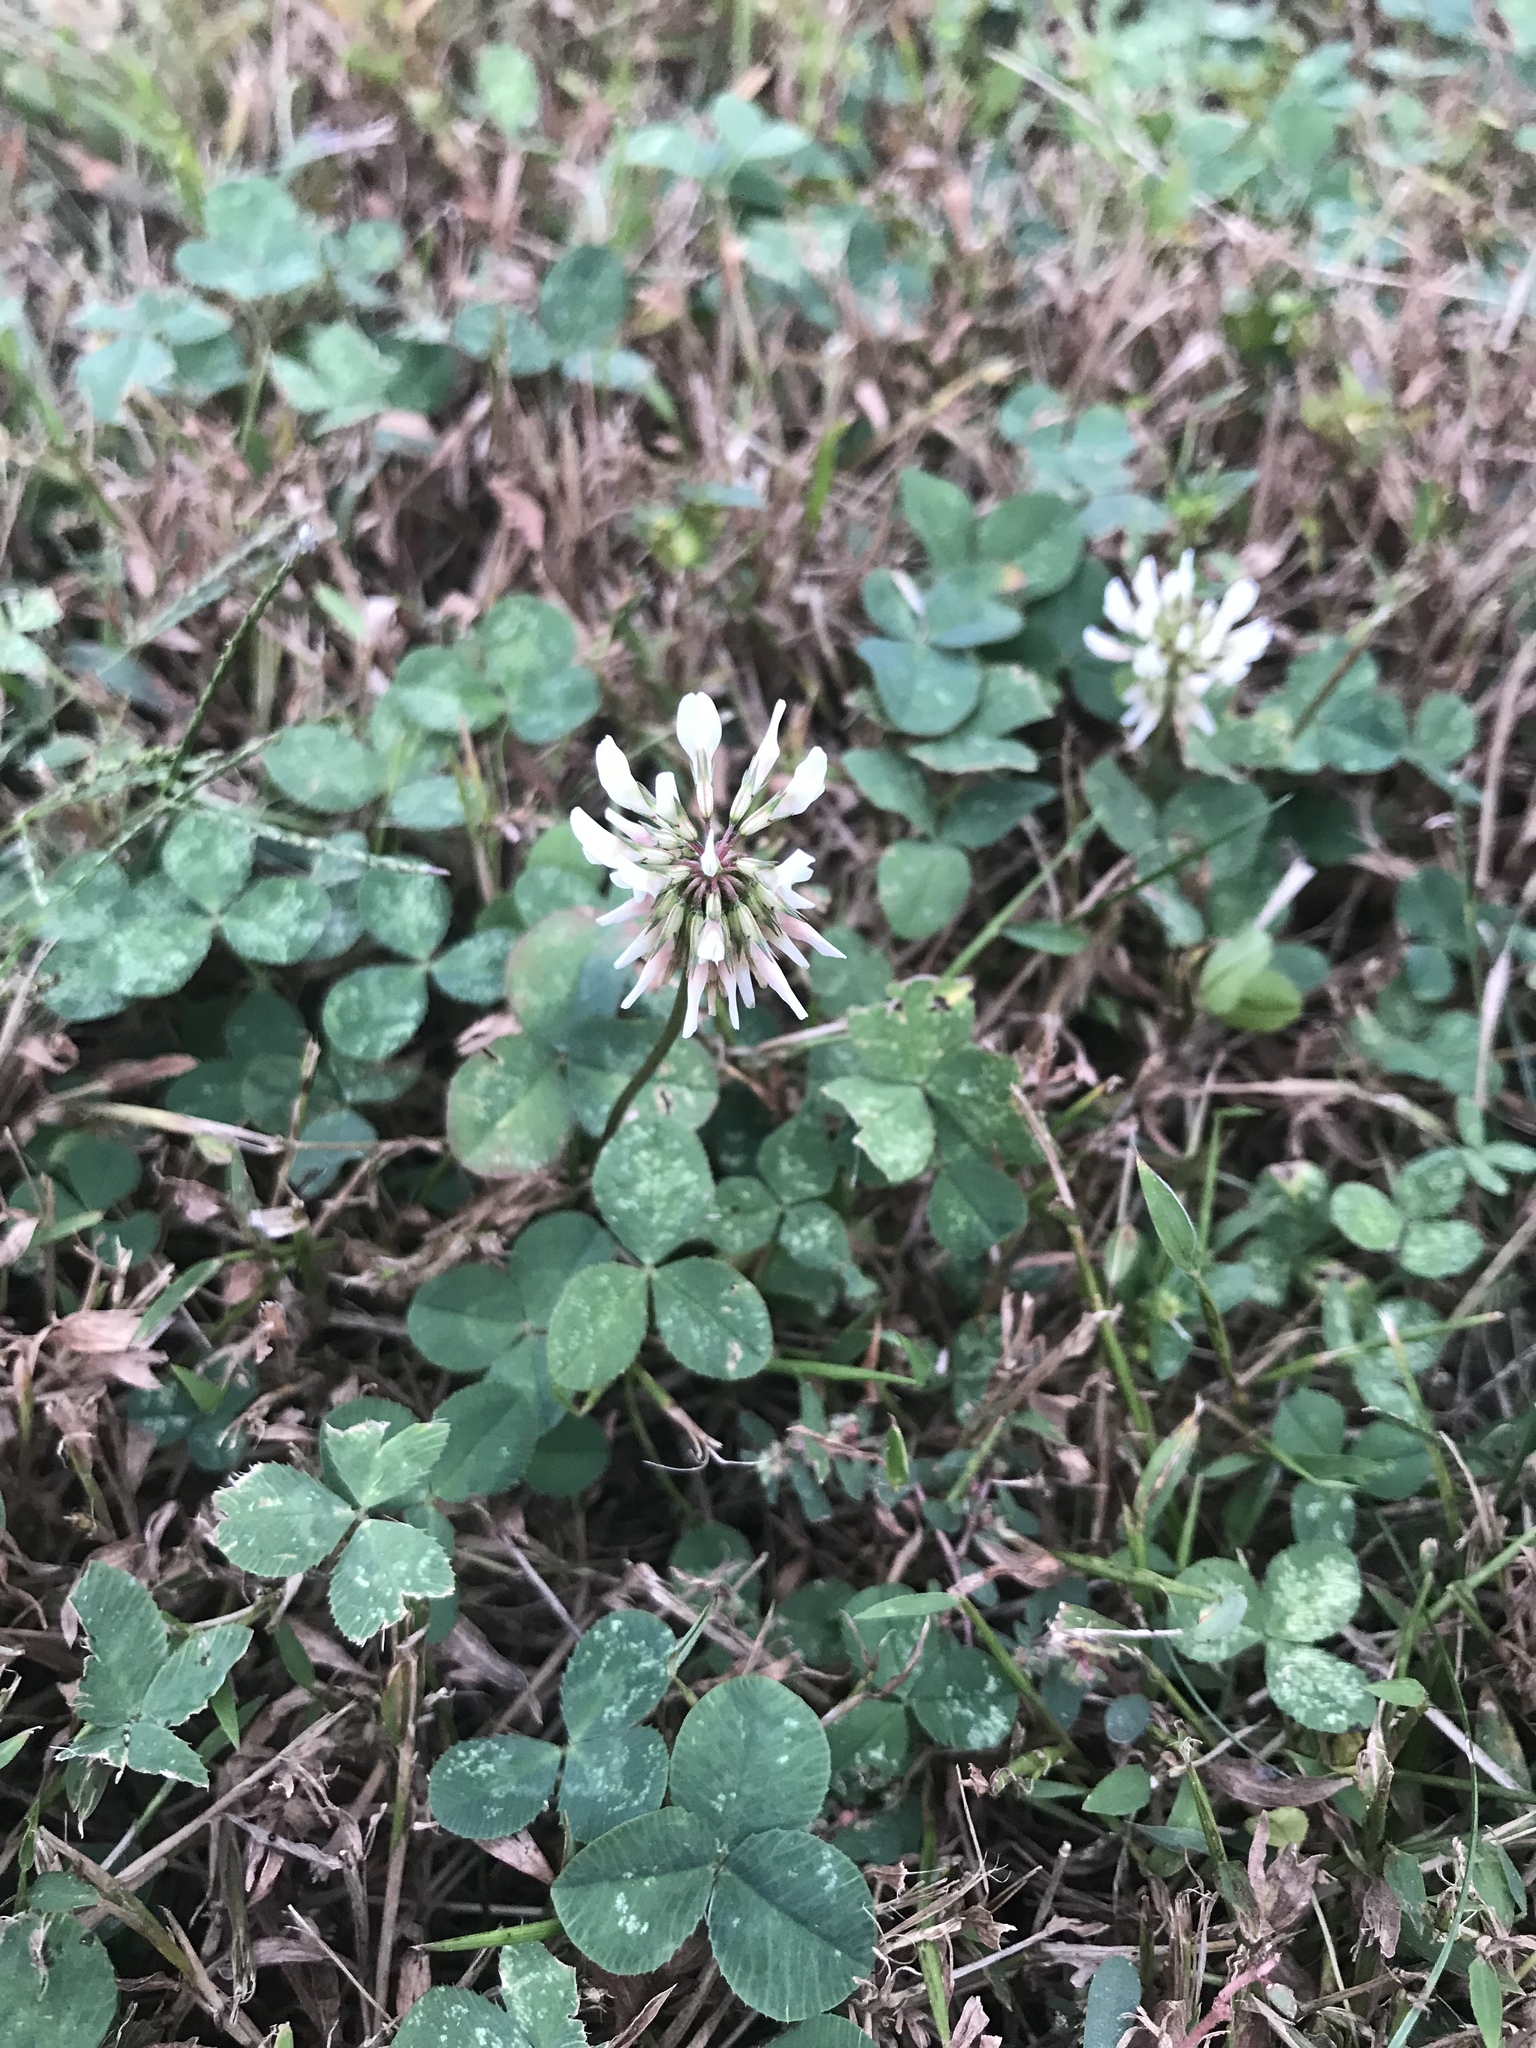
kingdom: Plantae
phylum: Tracheophyta
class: Magnoliopsida
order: Fabales
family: Fabaceae
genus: Trifolium
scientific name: Trifolium repens
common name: White clover
